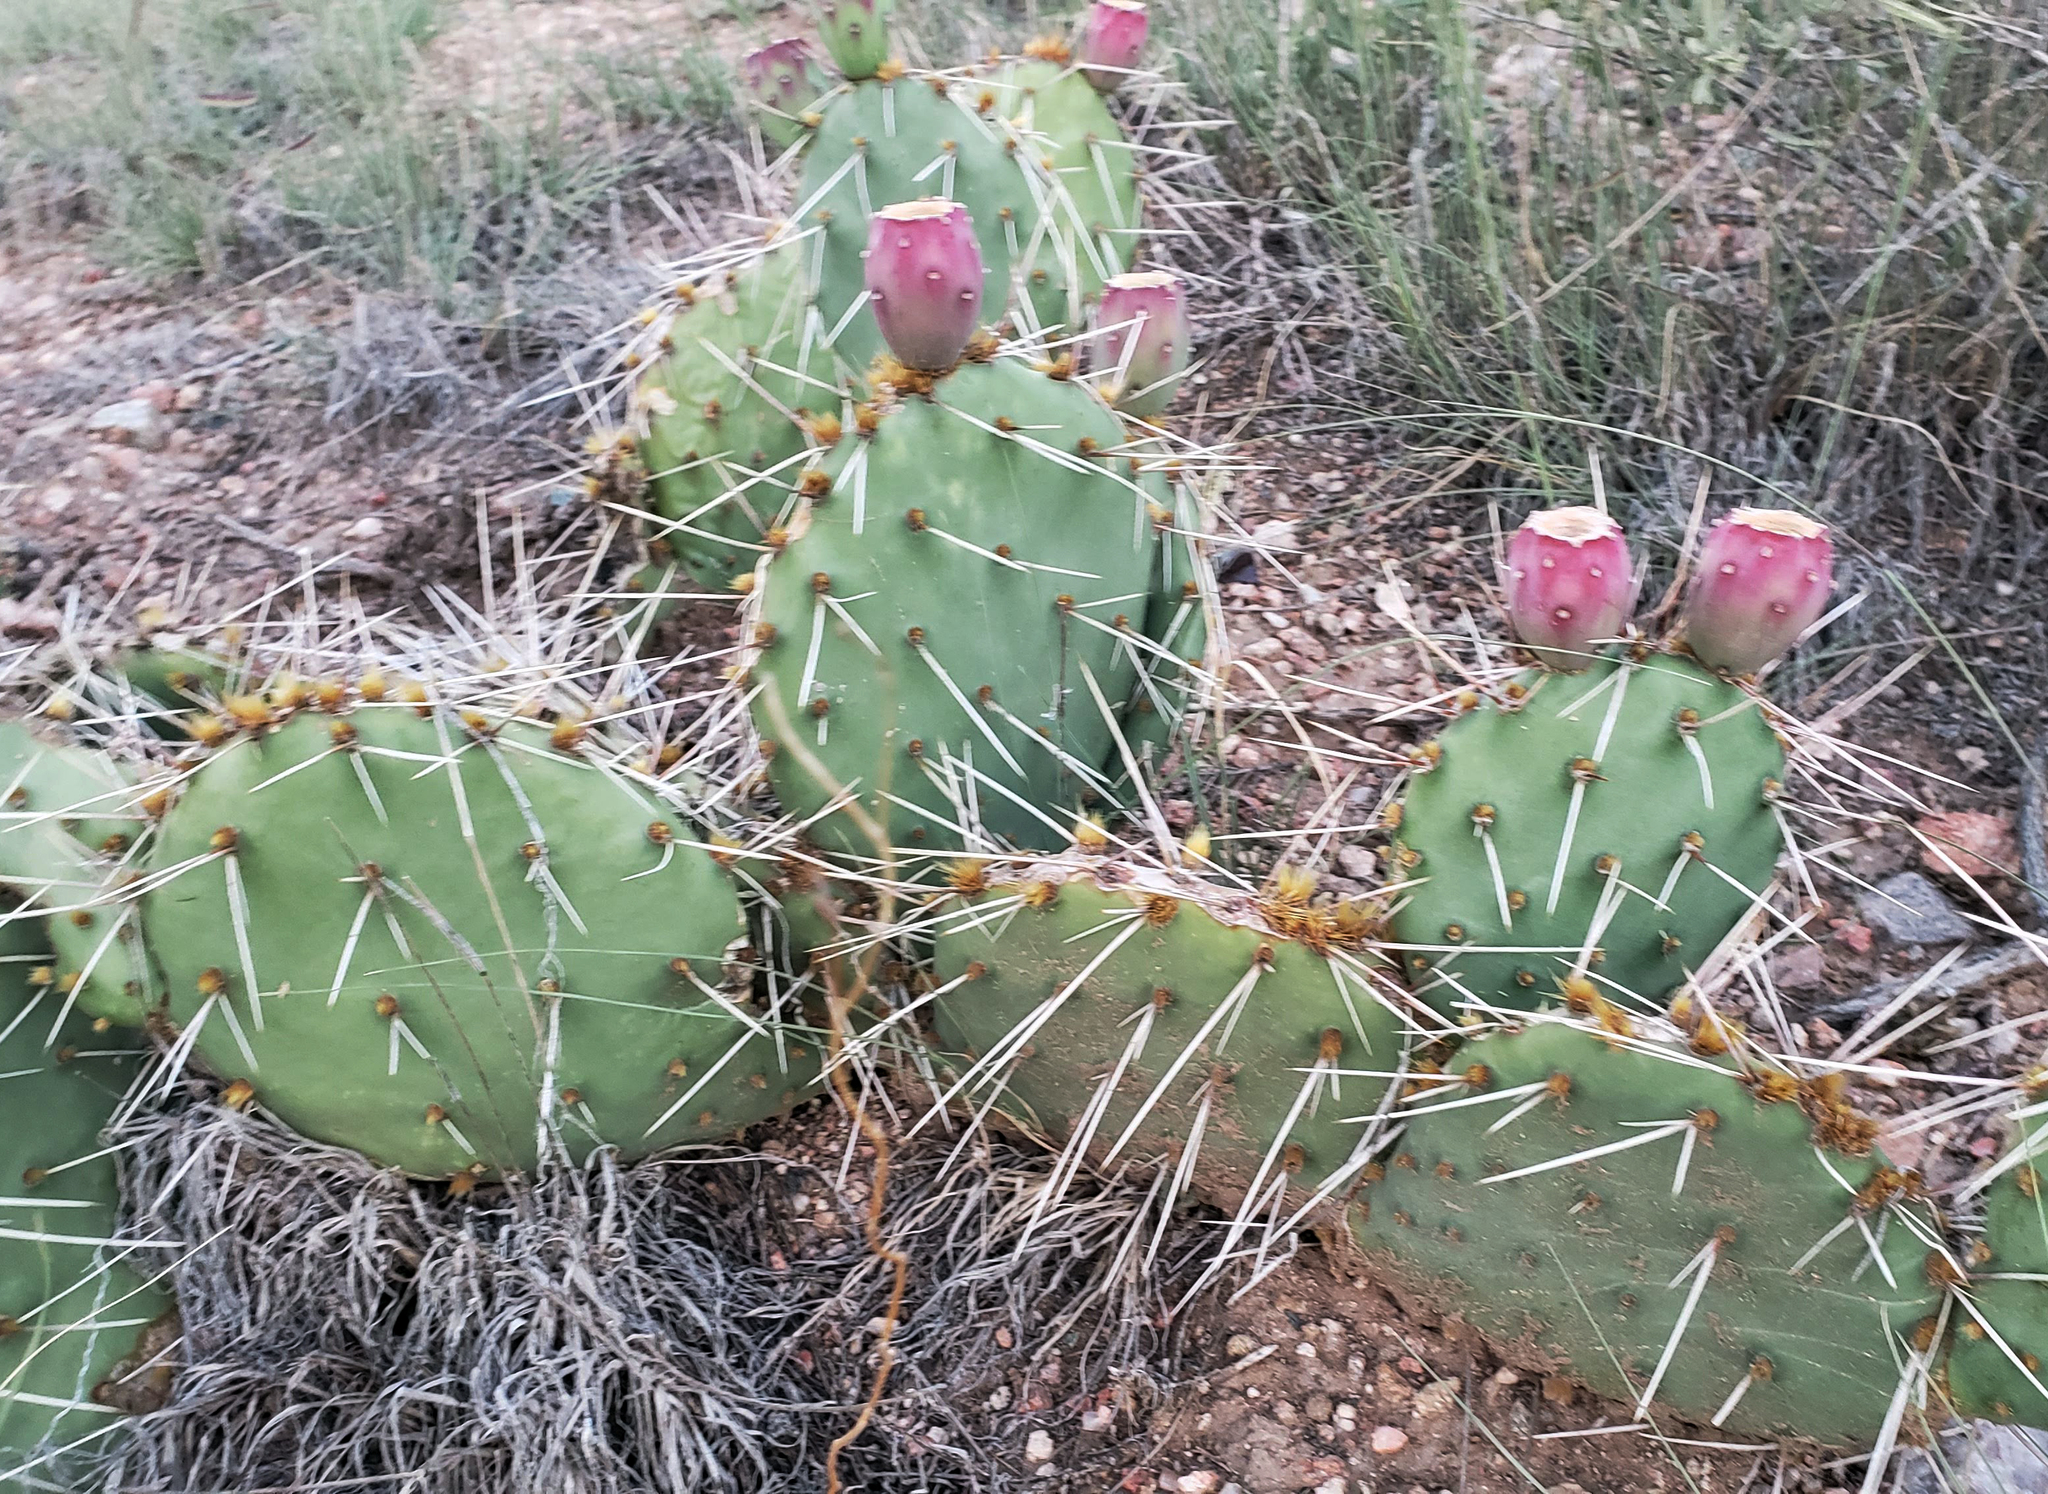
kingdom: Plantae
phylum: Tracheophyta
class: Magnoliopsida
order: Caryophyllales
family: Cactaceae
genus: Opuntia
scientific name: Opuntia phaeacantha
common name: New mexico prickly-pear
